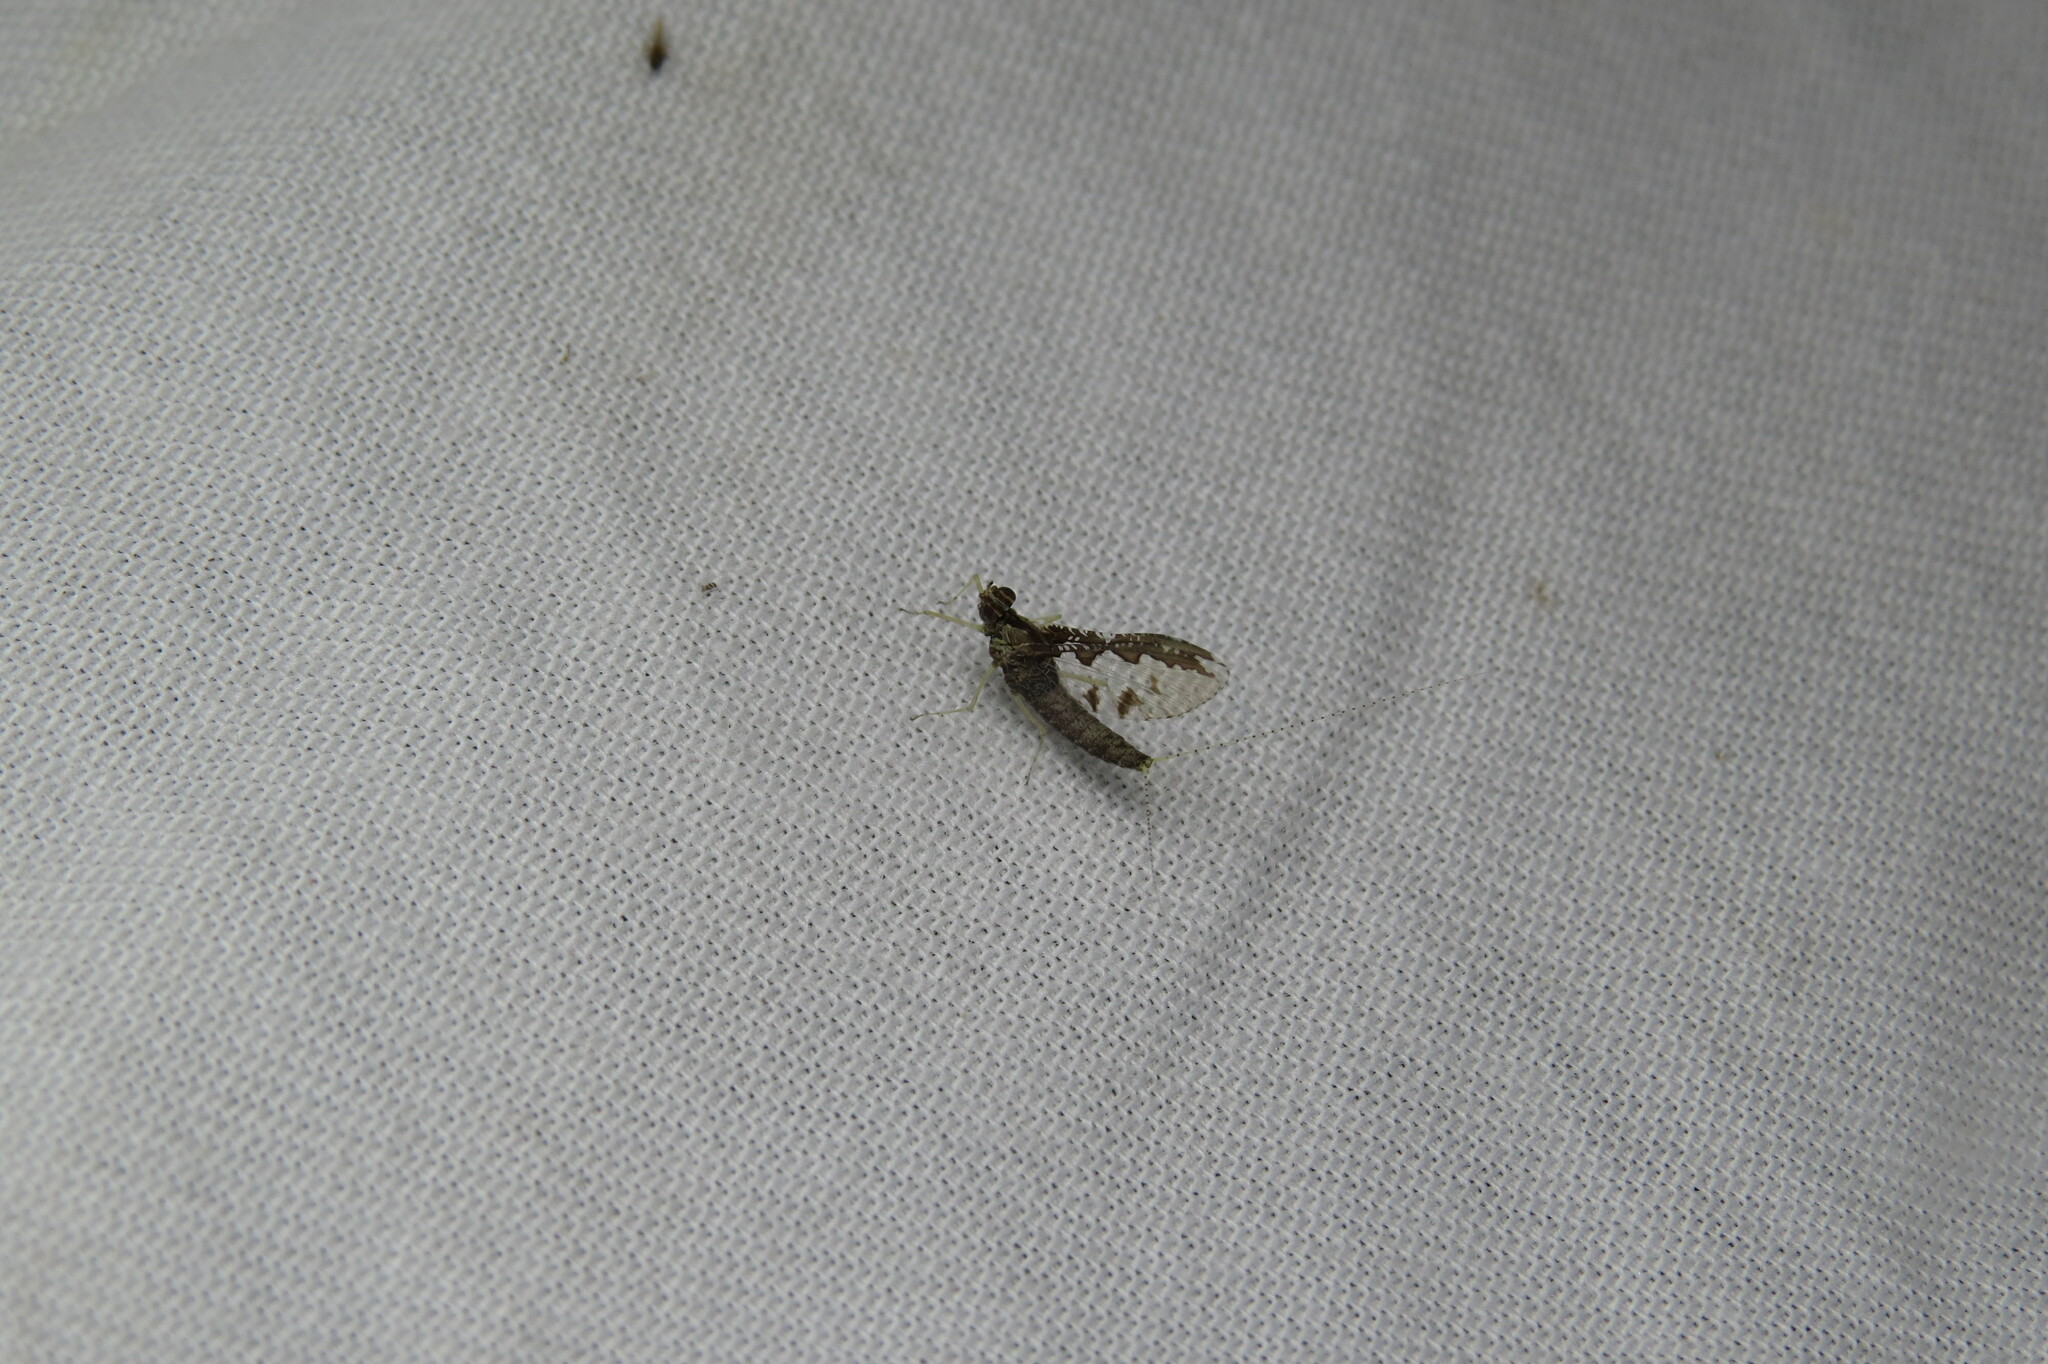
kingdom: Animalia
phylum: Arthropoda
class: Insecta
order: Ephemeroptera
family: Baetidae
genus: Callibaetis
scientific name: Callibaetis pretiosus
